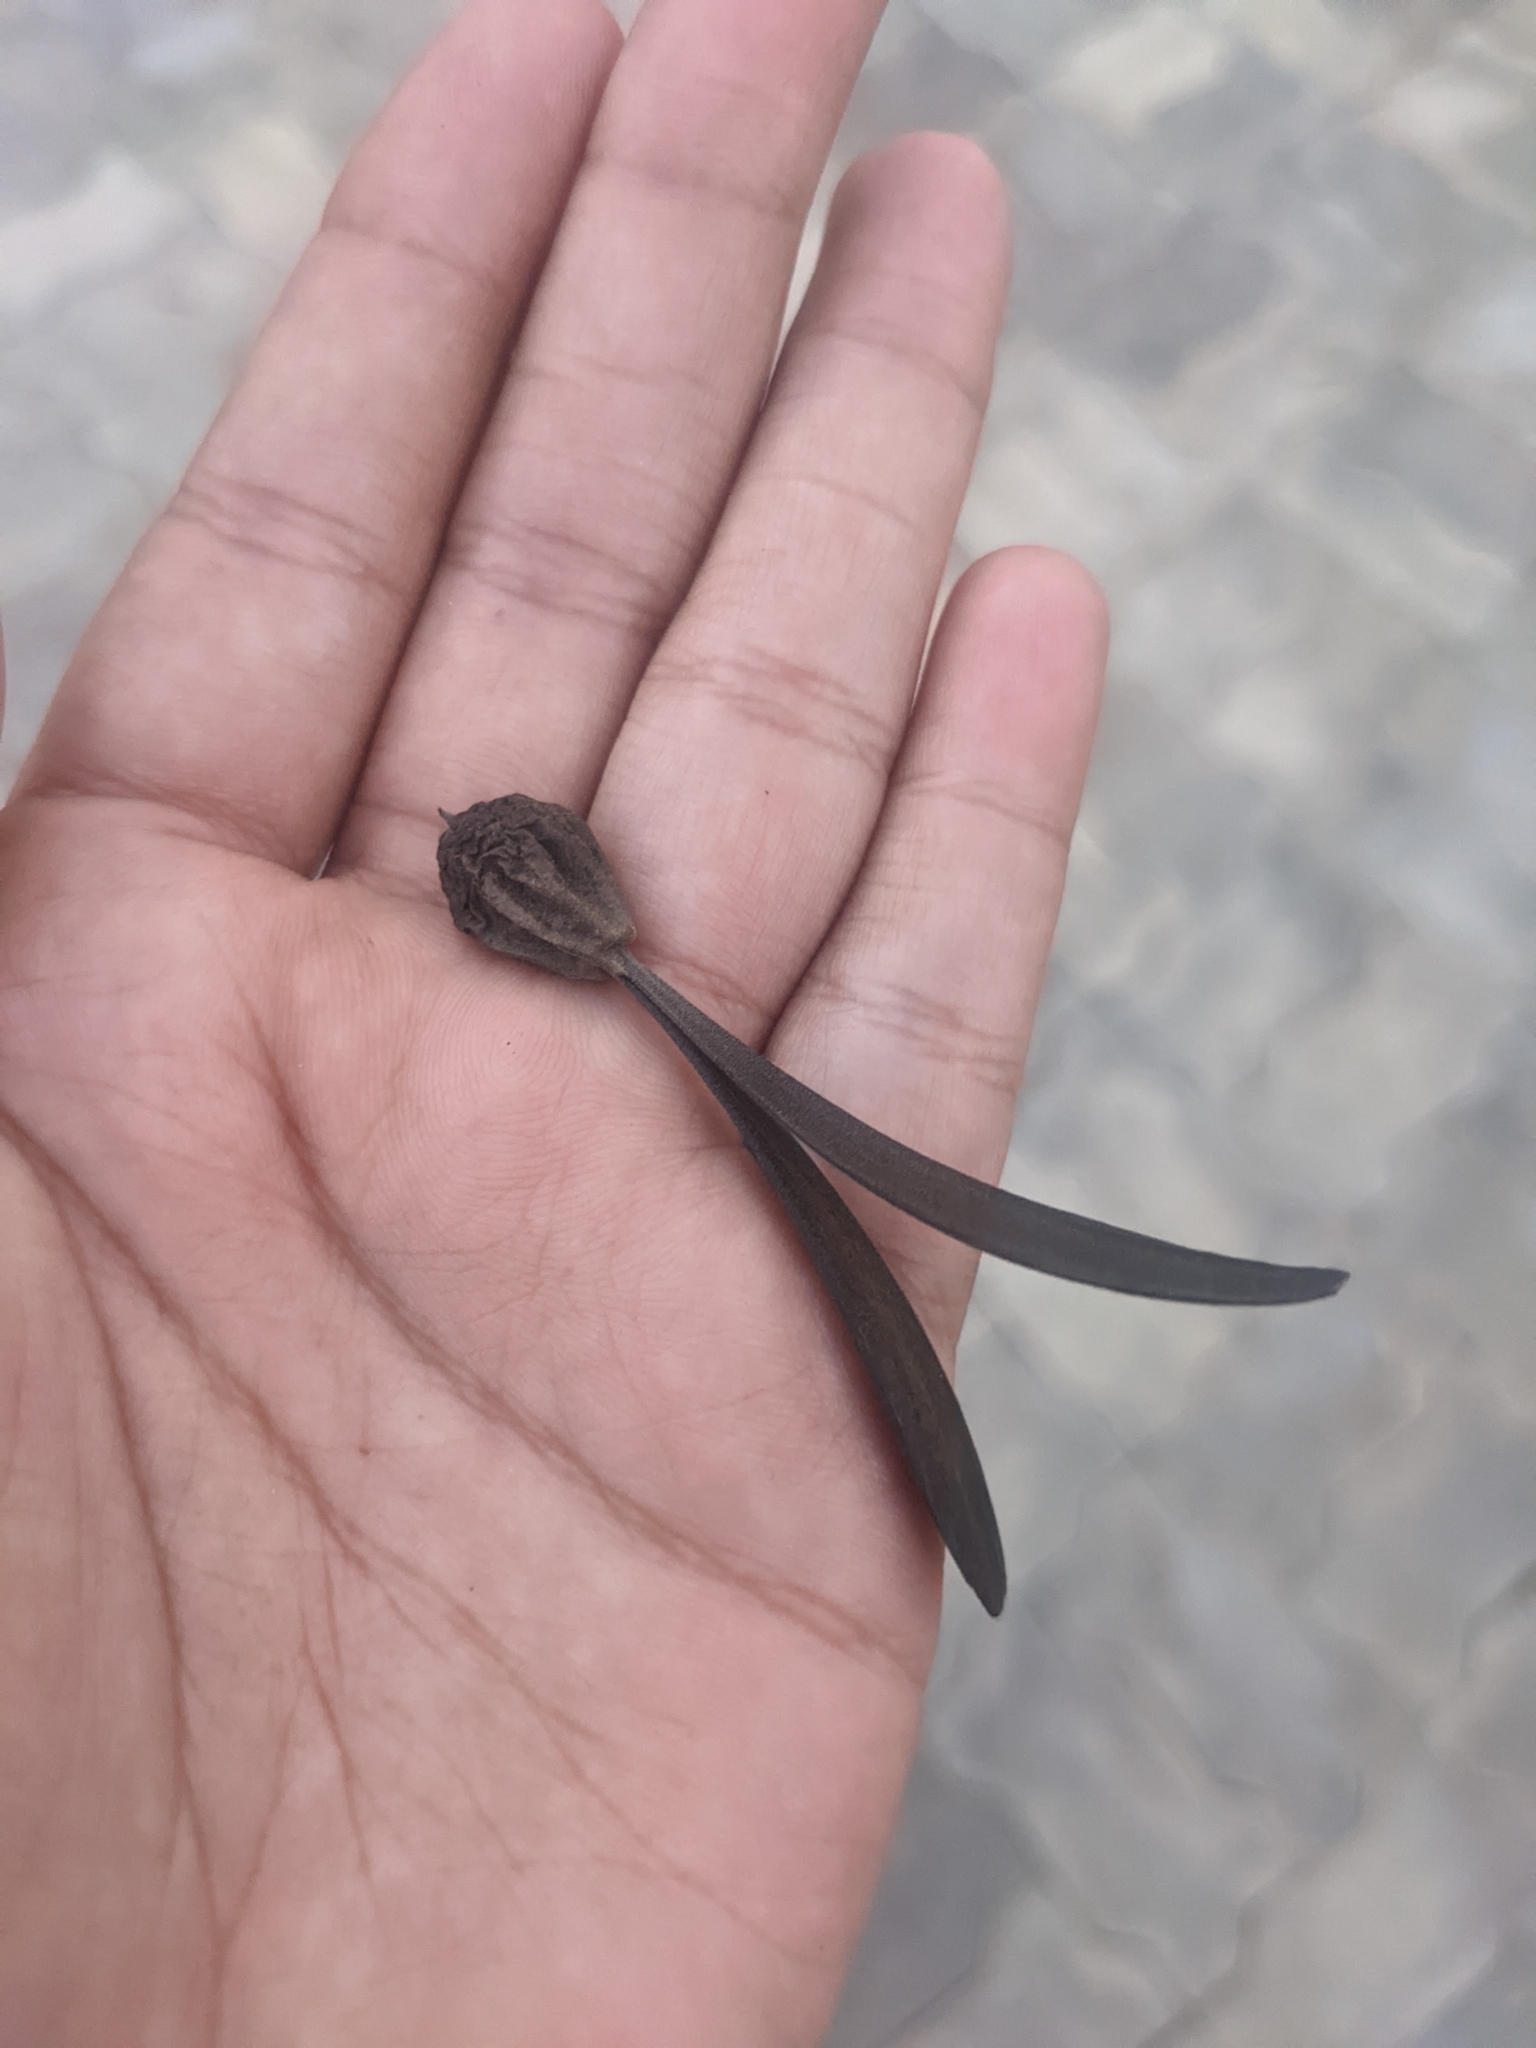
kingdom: Plantae
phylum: Tracheophyta
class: Magnoliopsida
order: Laurales
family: Hernandiaceae
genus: Gyrocarpus
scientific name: Gyrocarpus americanus
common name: Gyro damson
